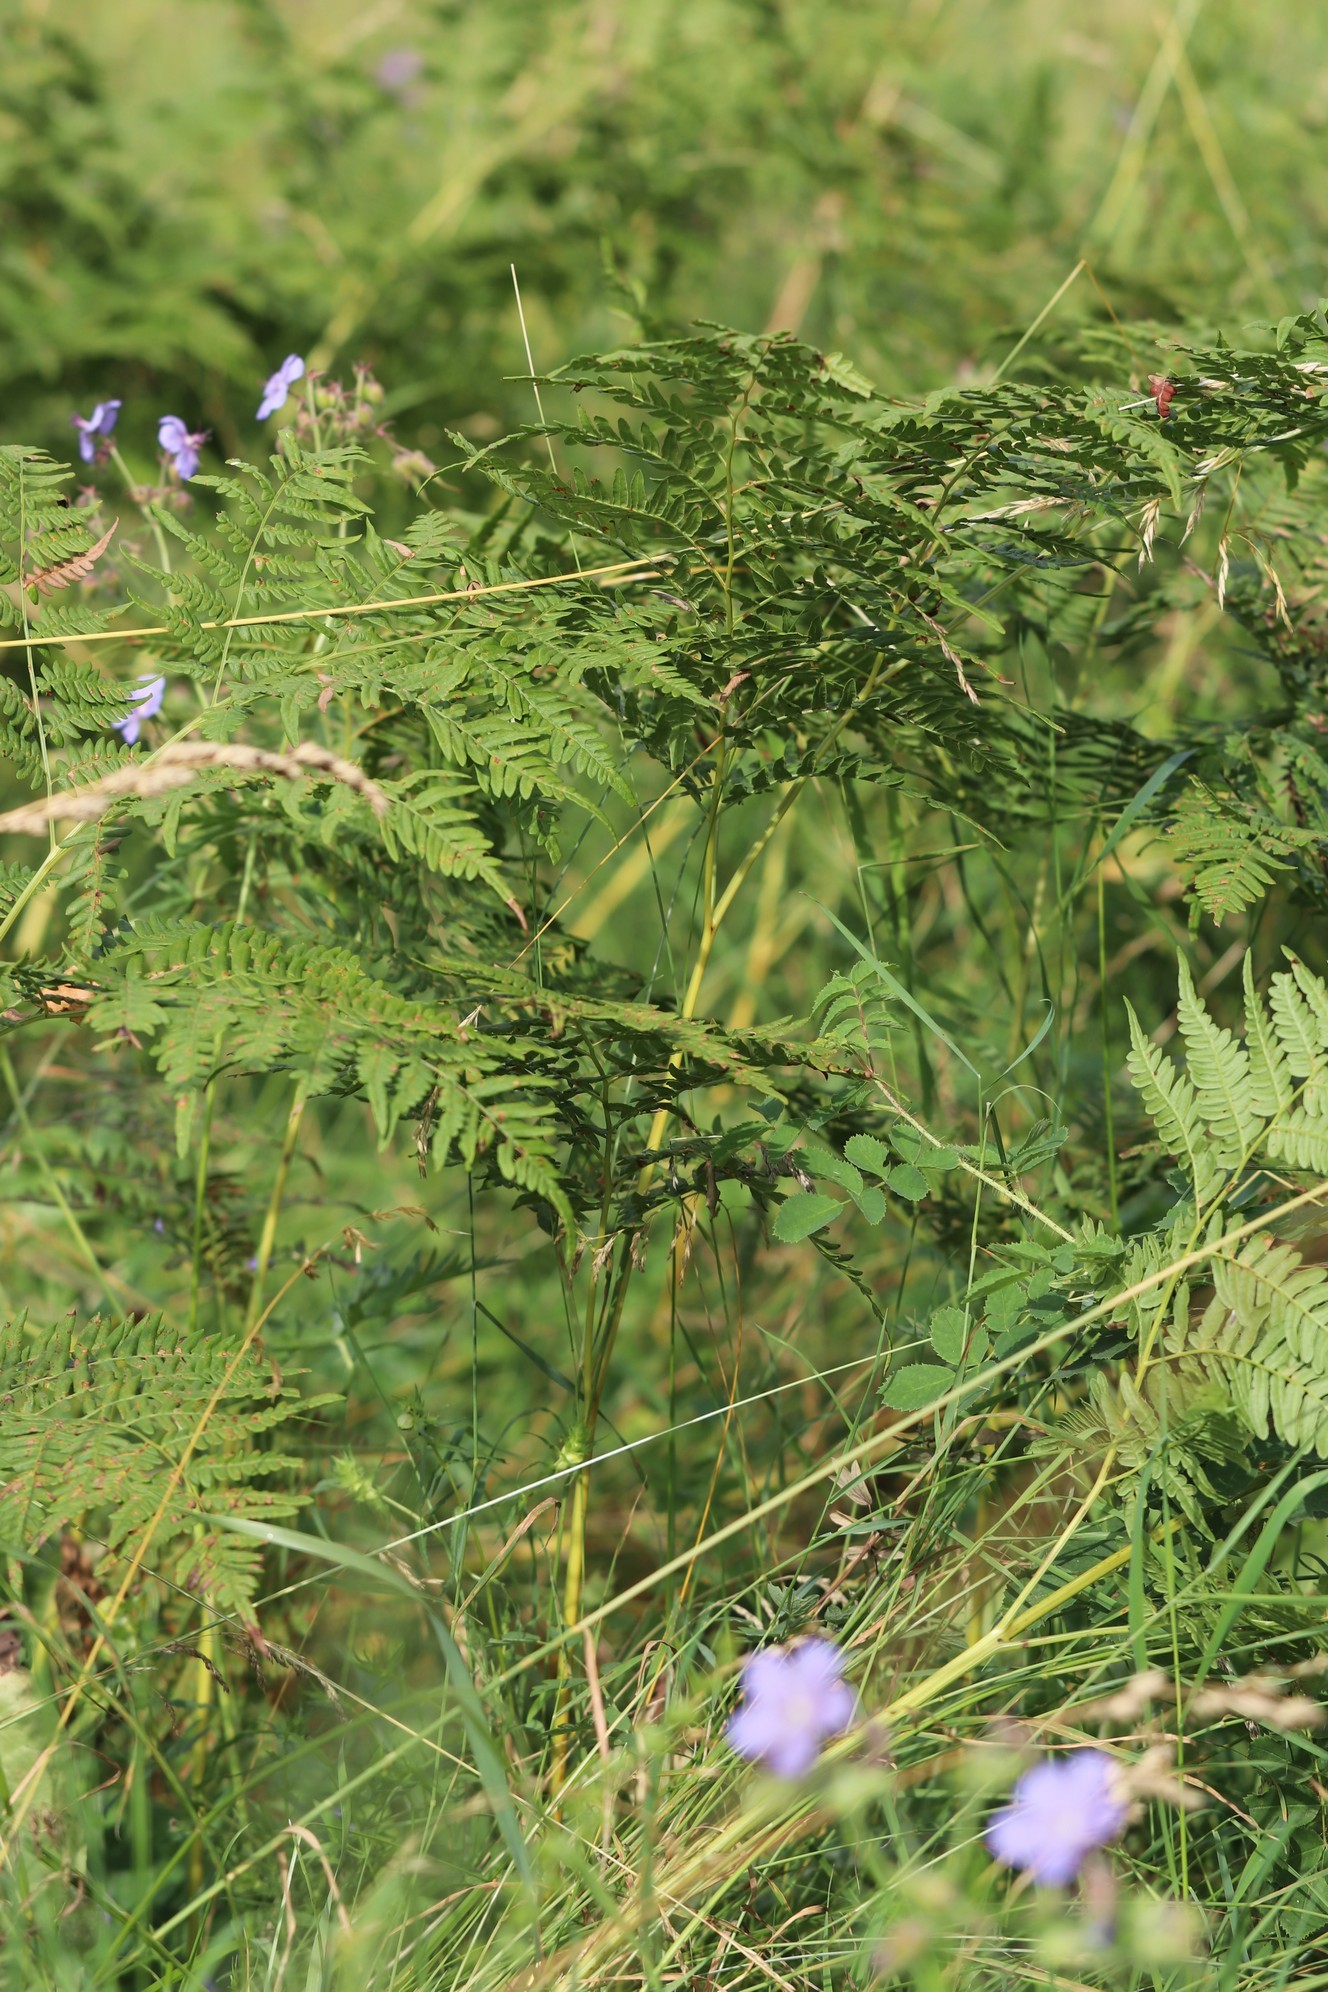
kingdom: Plantae
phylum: Tracheophyta
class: Polypodiopsida
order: Polypodiales
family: Dennstaedtiaceae
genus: Pteridium
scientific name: Pteridium aquilinum
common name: Bracken
